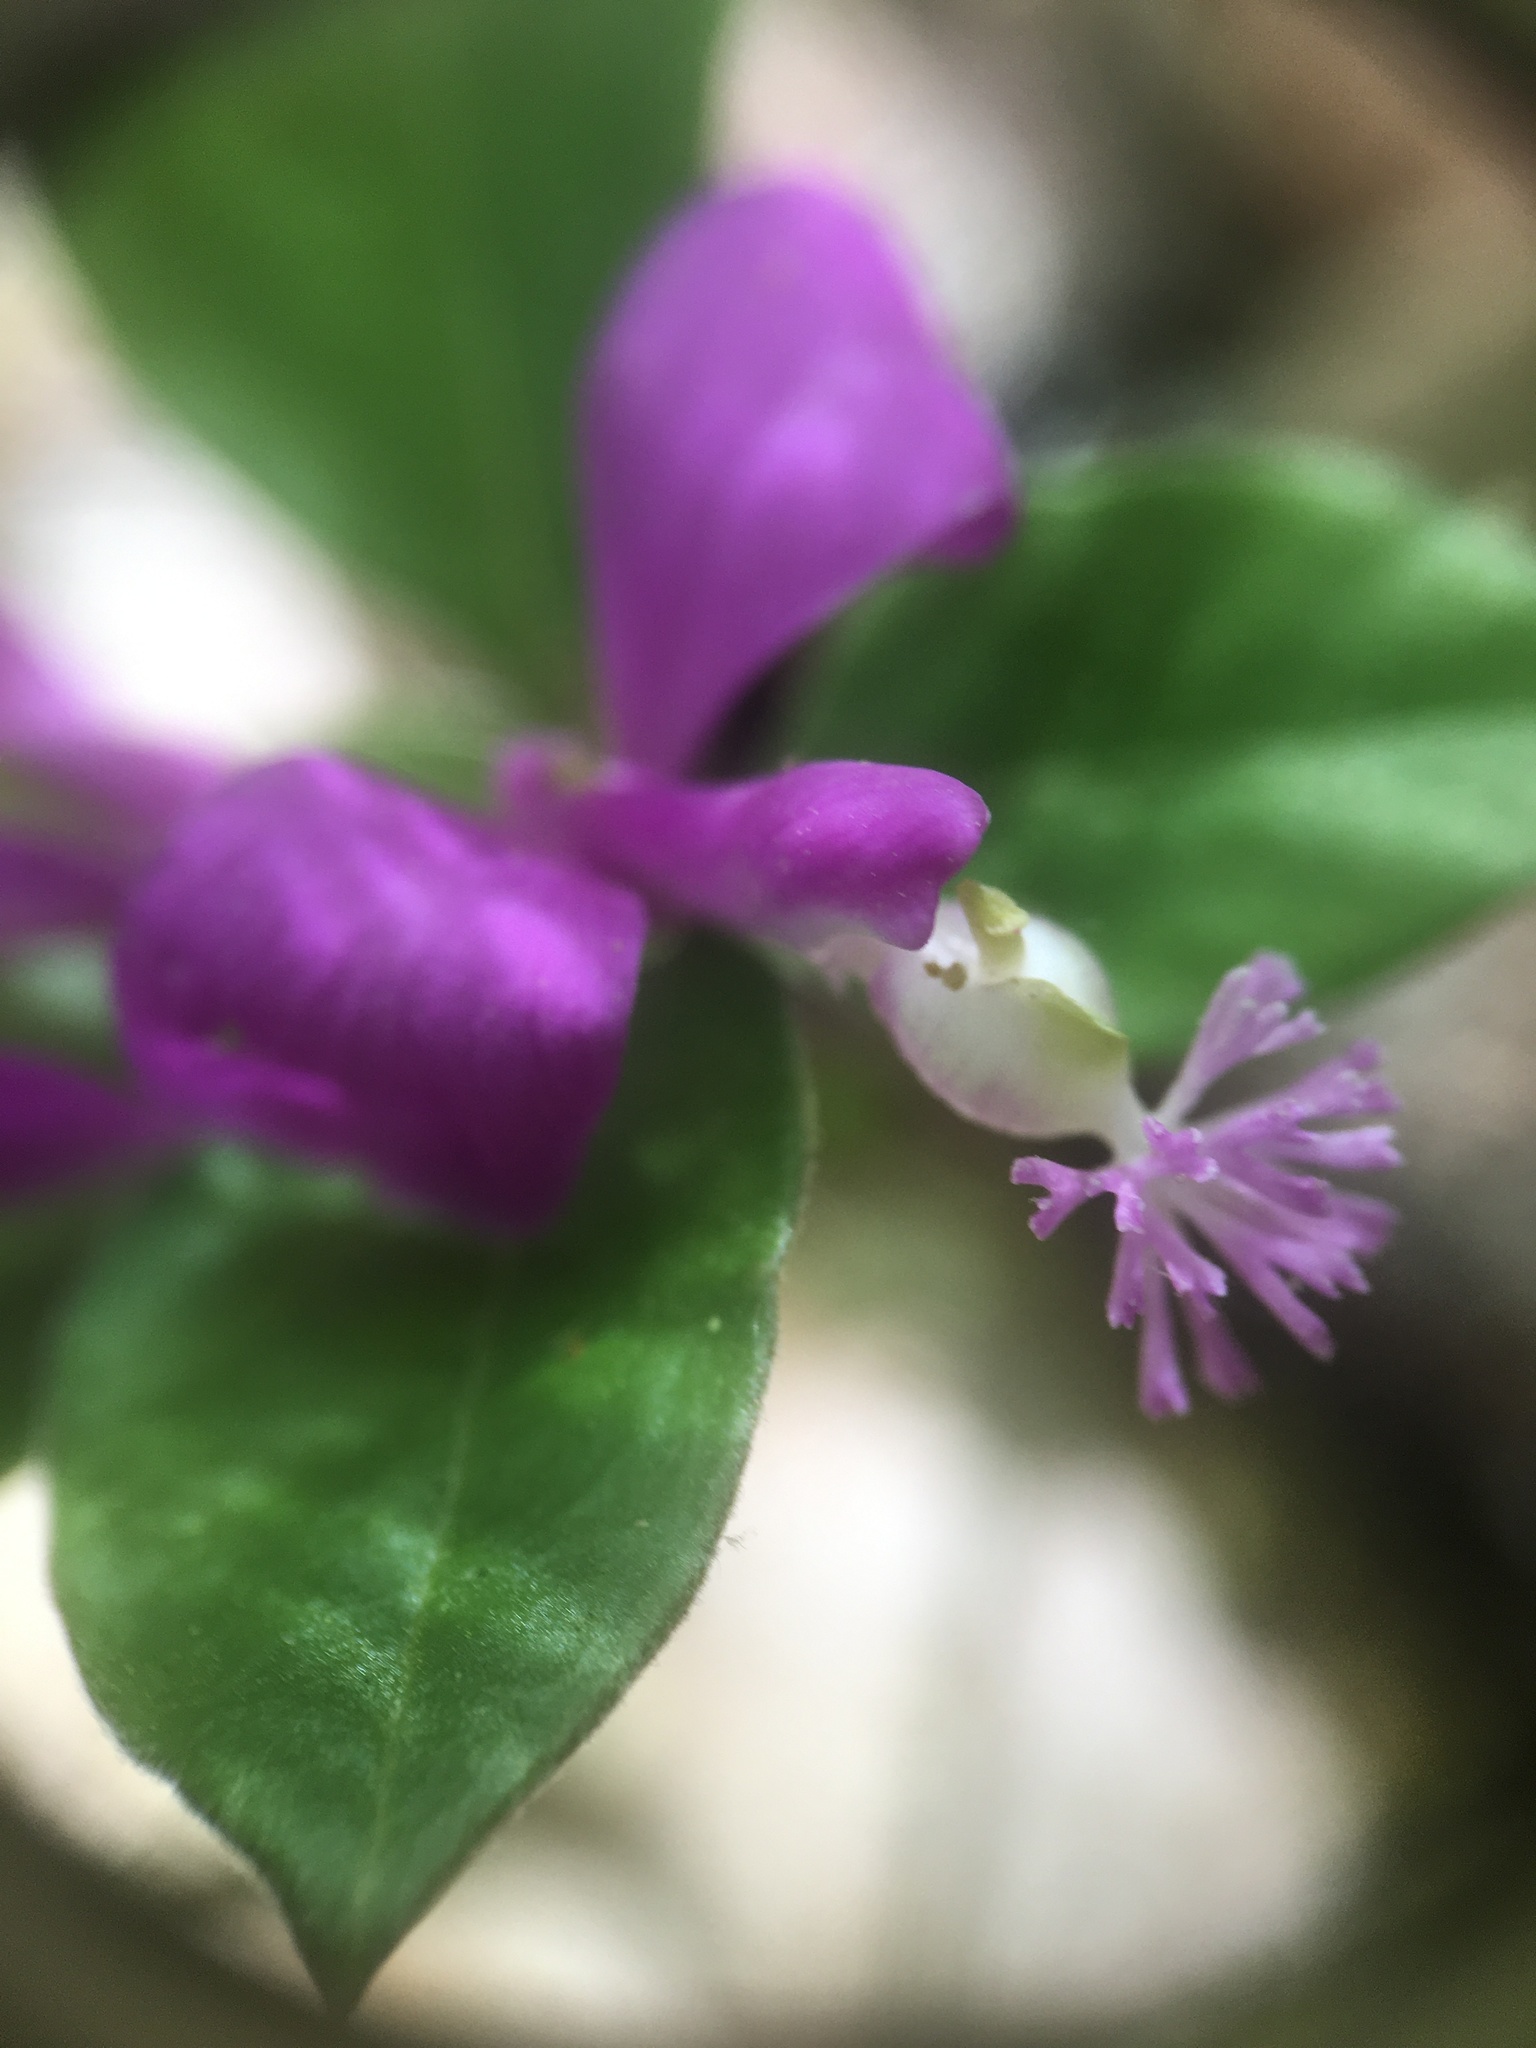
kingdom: Plantae
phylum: Tracheophyta
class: Magnoliopsida
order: Fabales
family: Polygalaceae
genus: Polygaloides
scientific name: Polygaloides paucifolia
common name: Bird-on-the-wing
